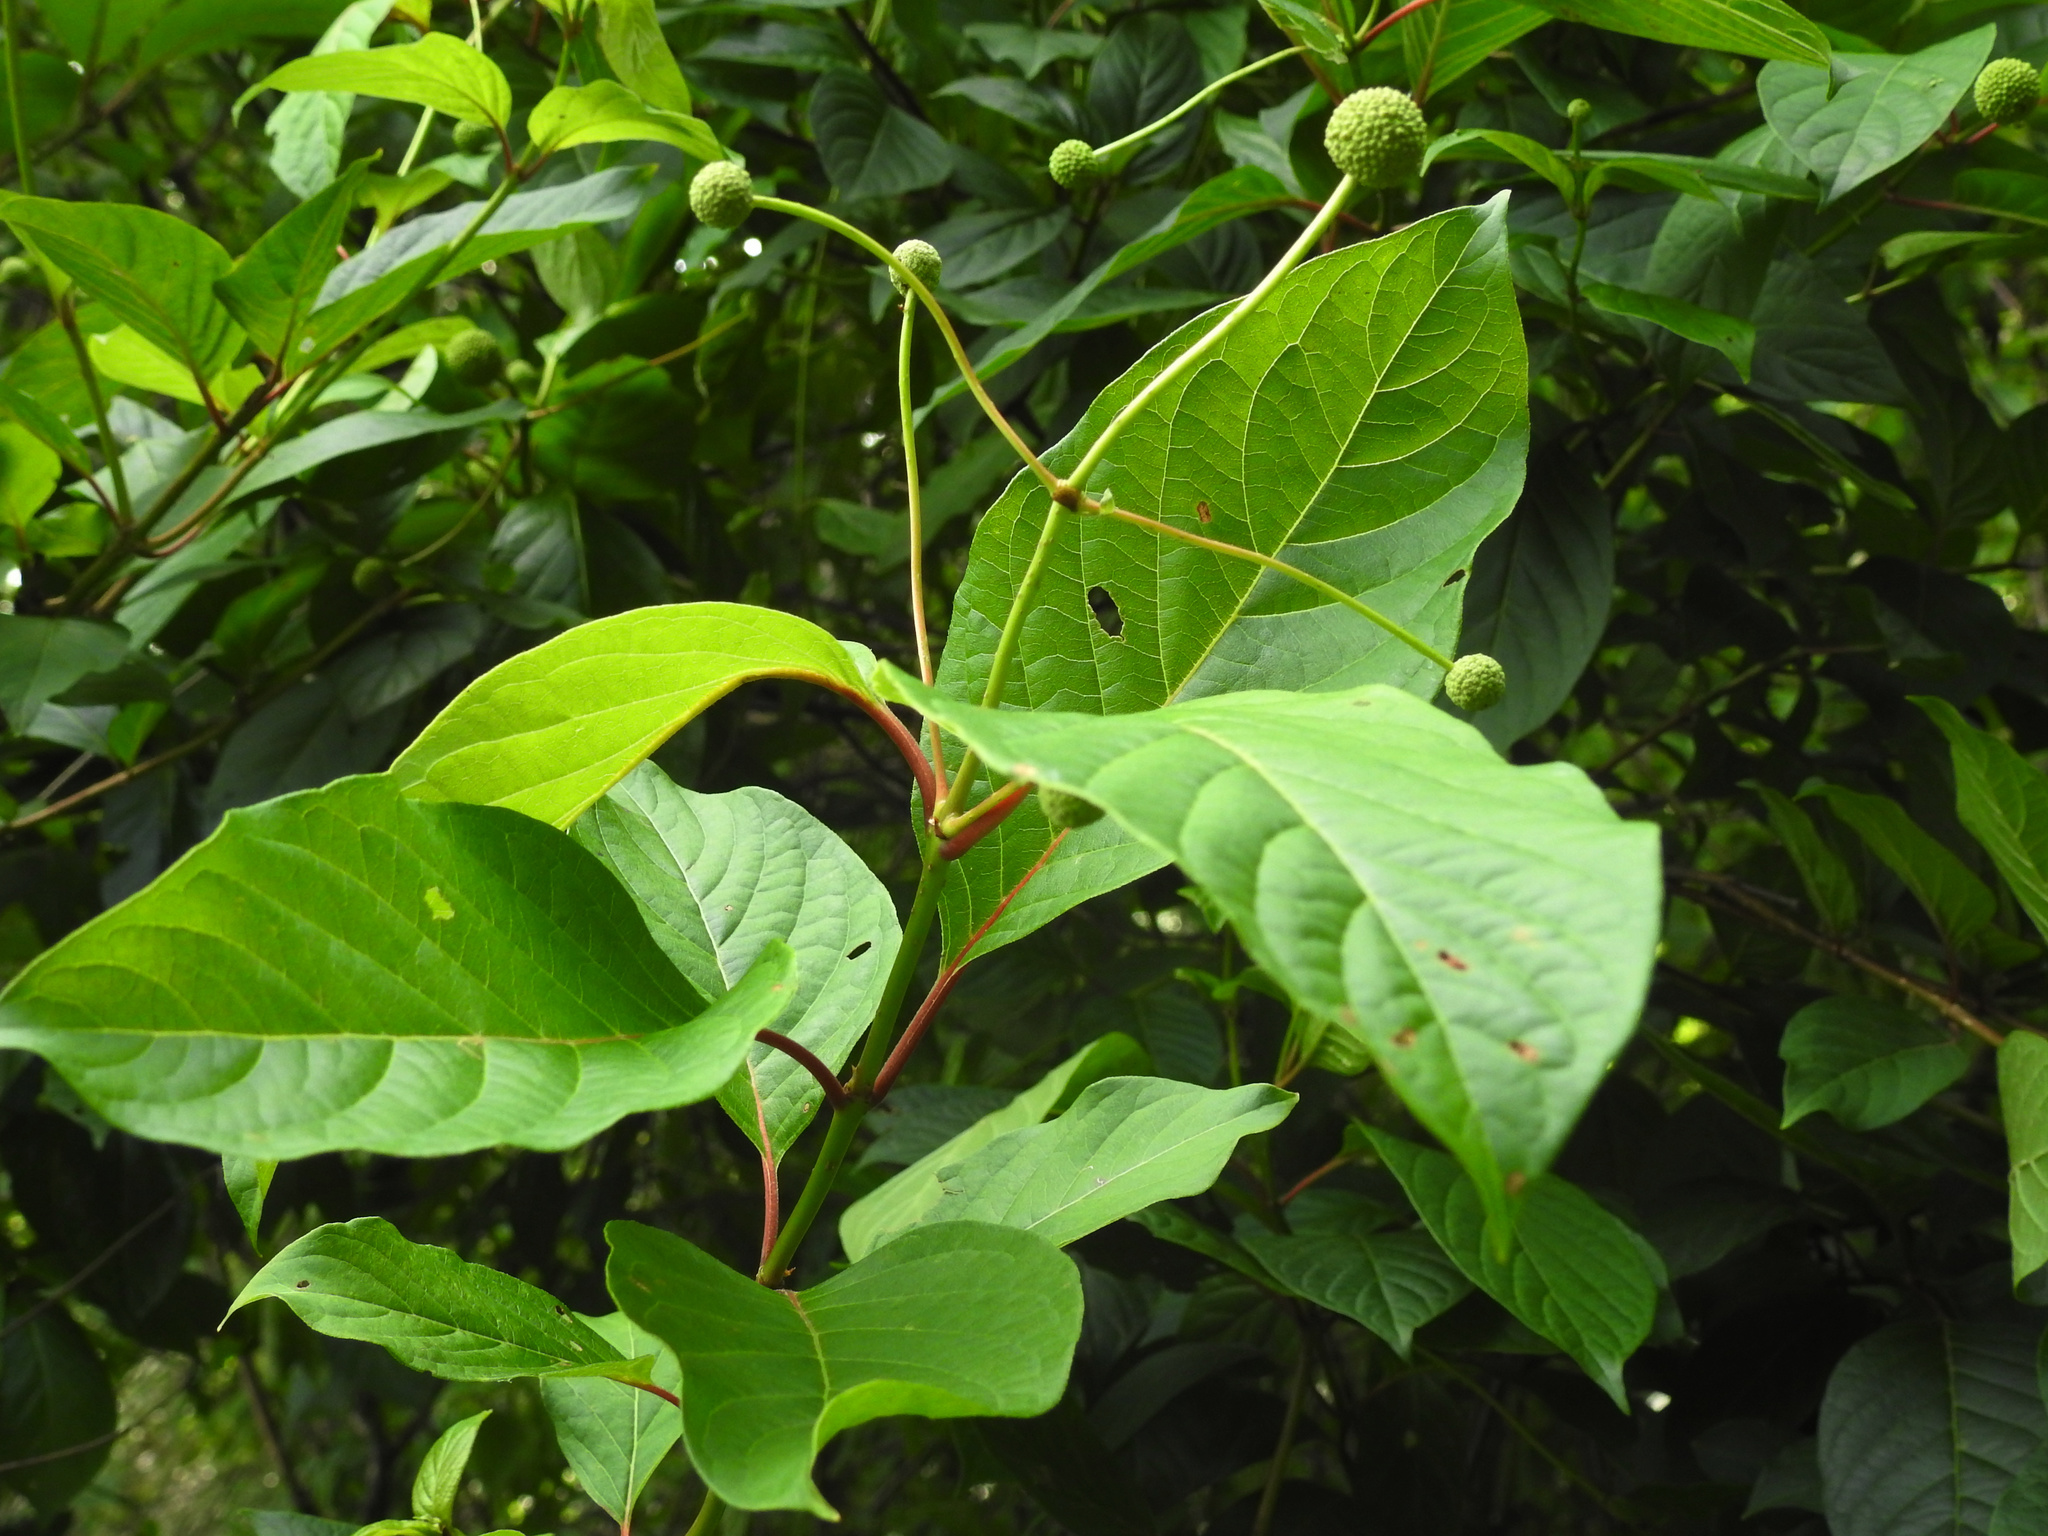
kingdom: Plantae
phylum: Tracheophyta
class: Magnoliopsida
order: Gentianales
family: Rubiaceae
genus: Cephalanthus
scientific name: Cephalanthus occidentalis
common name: Button-willow
